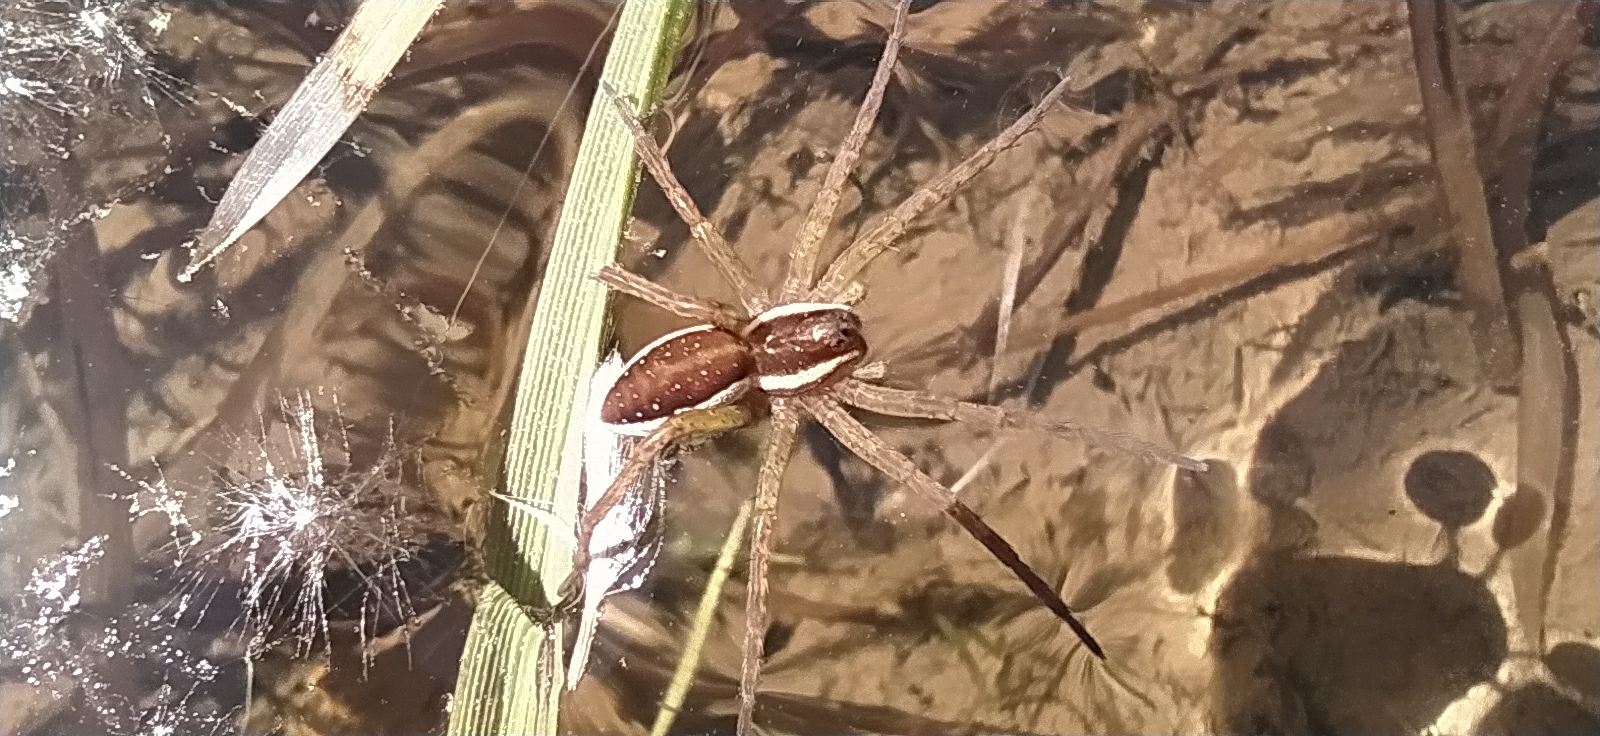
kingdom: Animalia
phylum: Arthropoda
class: Arachnida
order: Araneae
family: Pisauridae
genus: Dolomedes
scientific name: Dolomedes fimbriatus
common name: Raft spider
